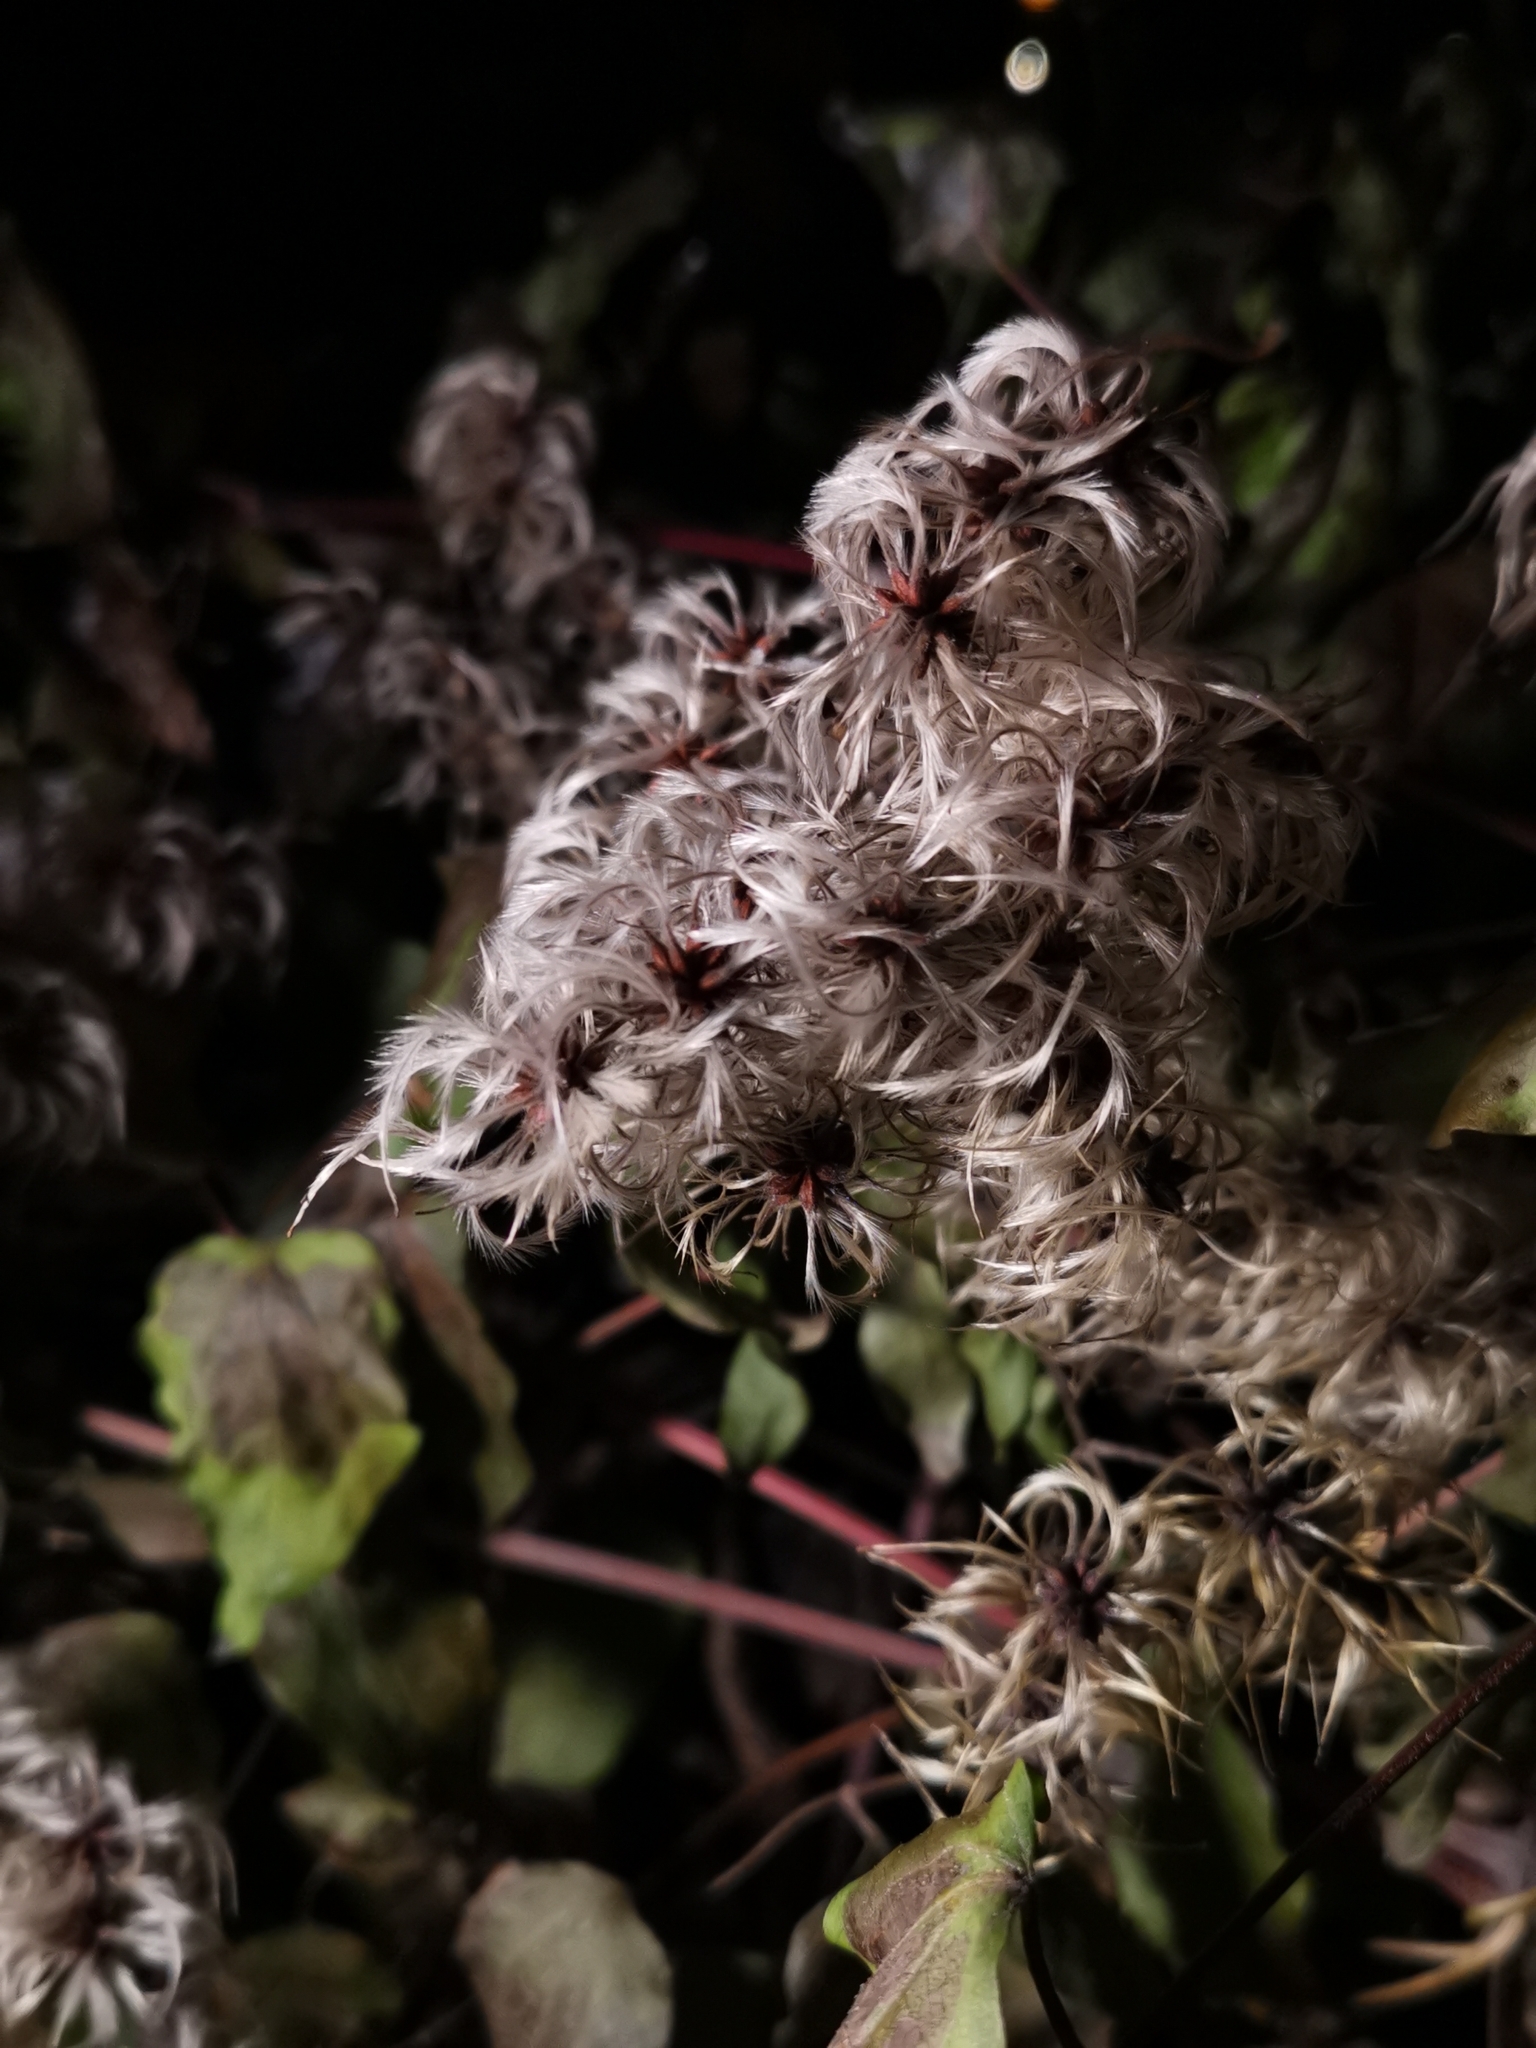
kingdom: Plantae
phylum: Tracheophyta
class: Magnoliopsida
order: Ranunculales
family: Ranunculaceae
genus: Clematis
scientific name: Clematis vitalba
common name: Evergreen clematis
